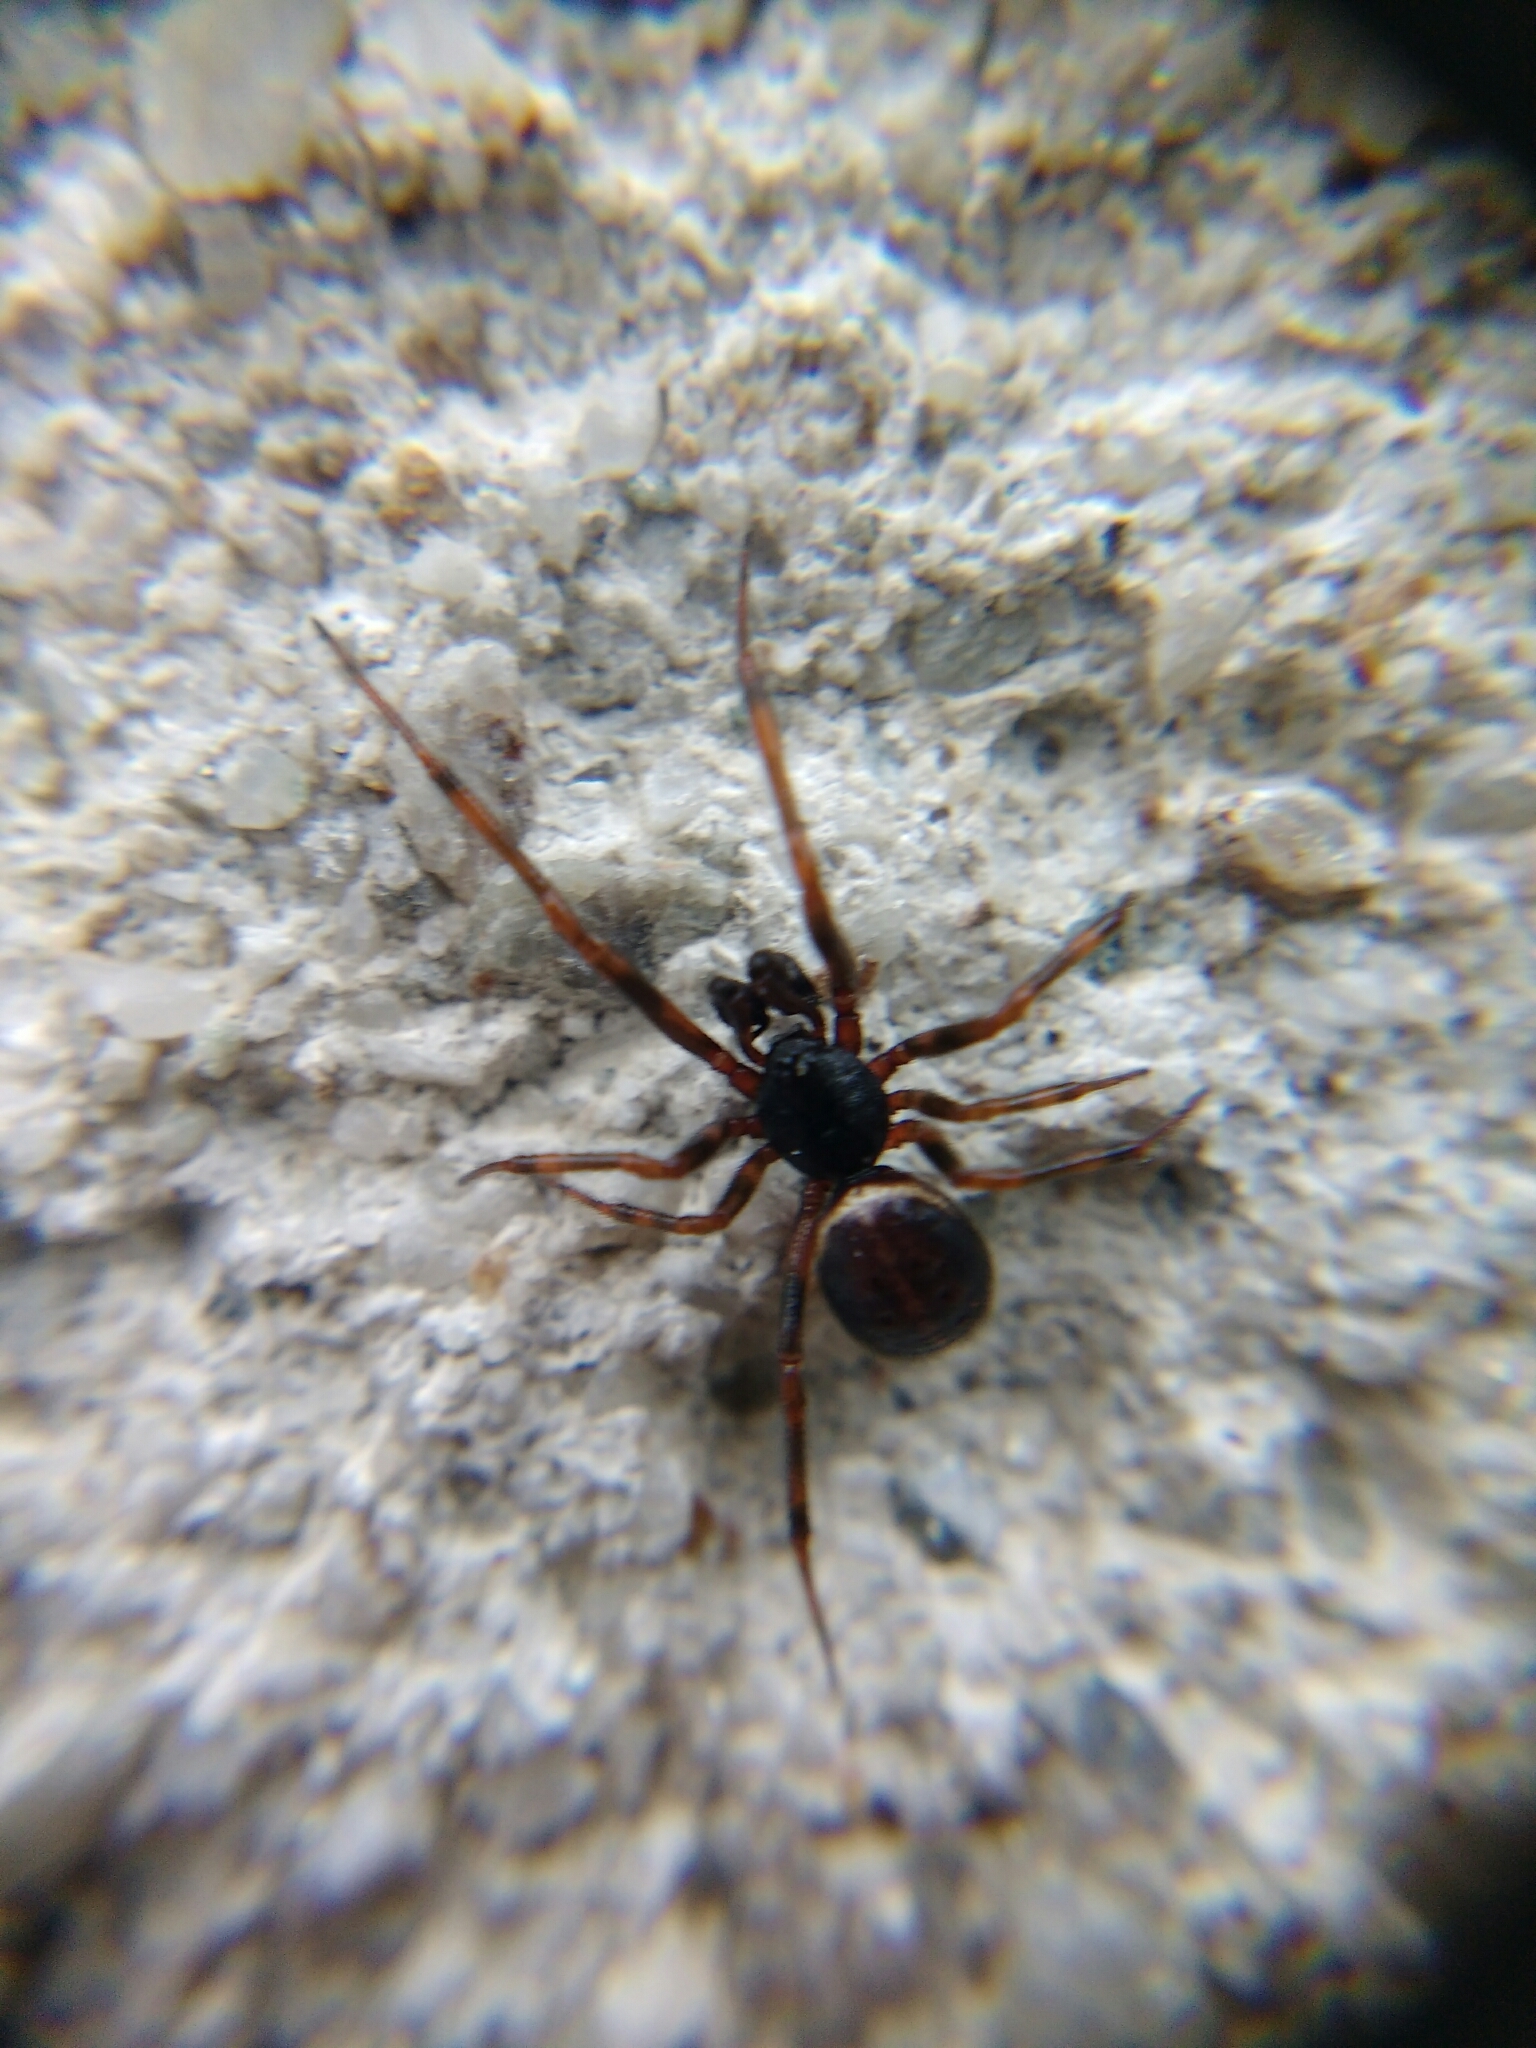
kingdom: Animalia
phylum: Arthropoda
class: Arachnida
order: Araneae
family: Theridiidae
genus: Steatoda
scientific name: Steatoda bipunctata
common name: False widow
